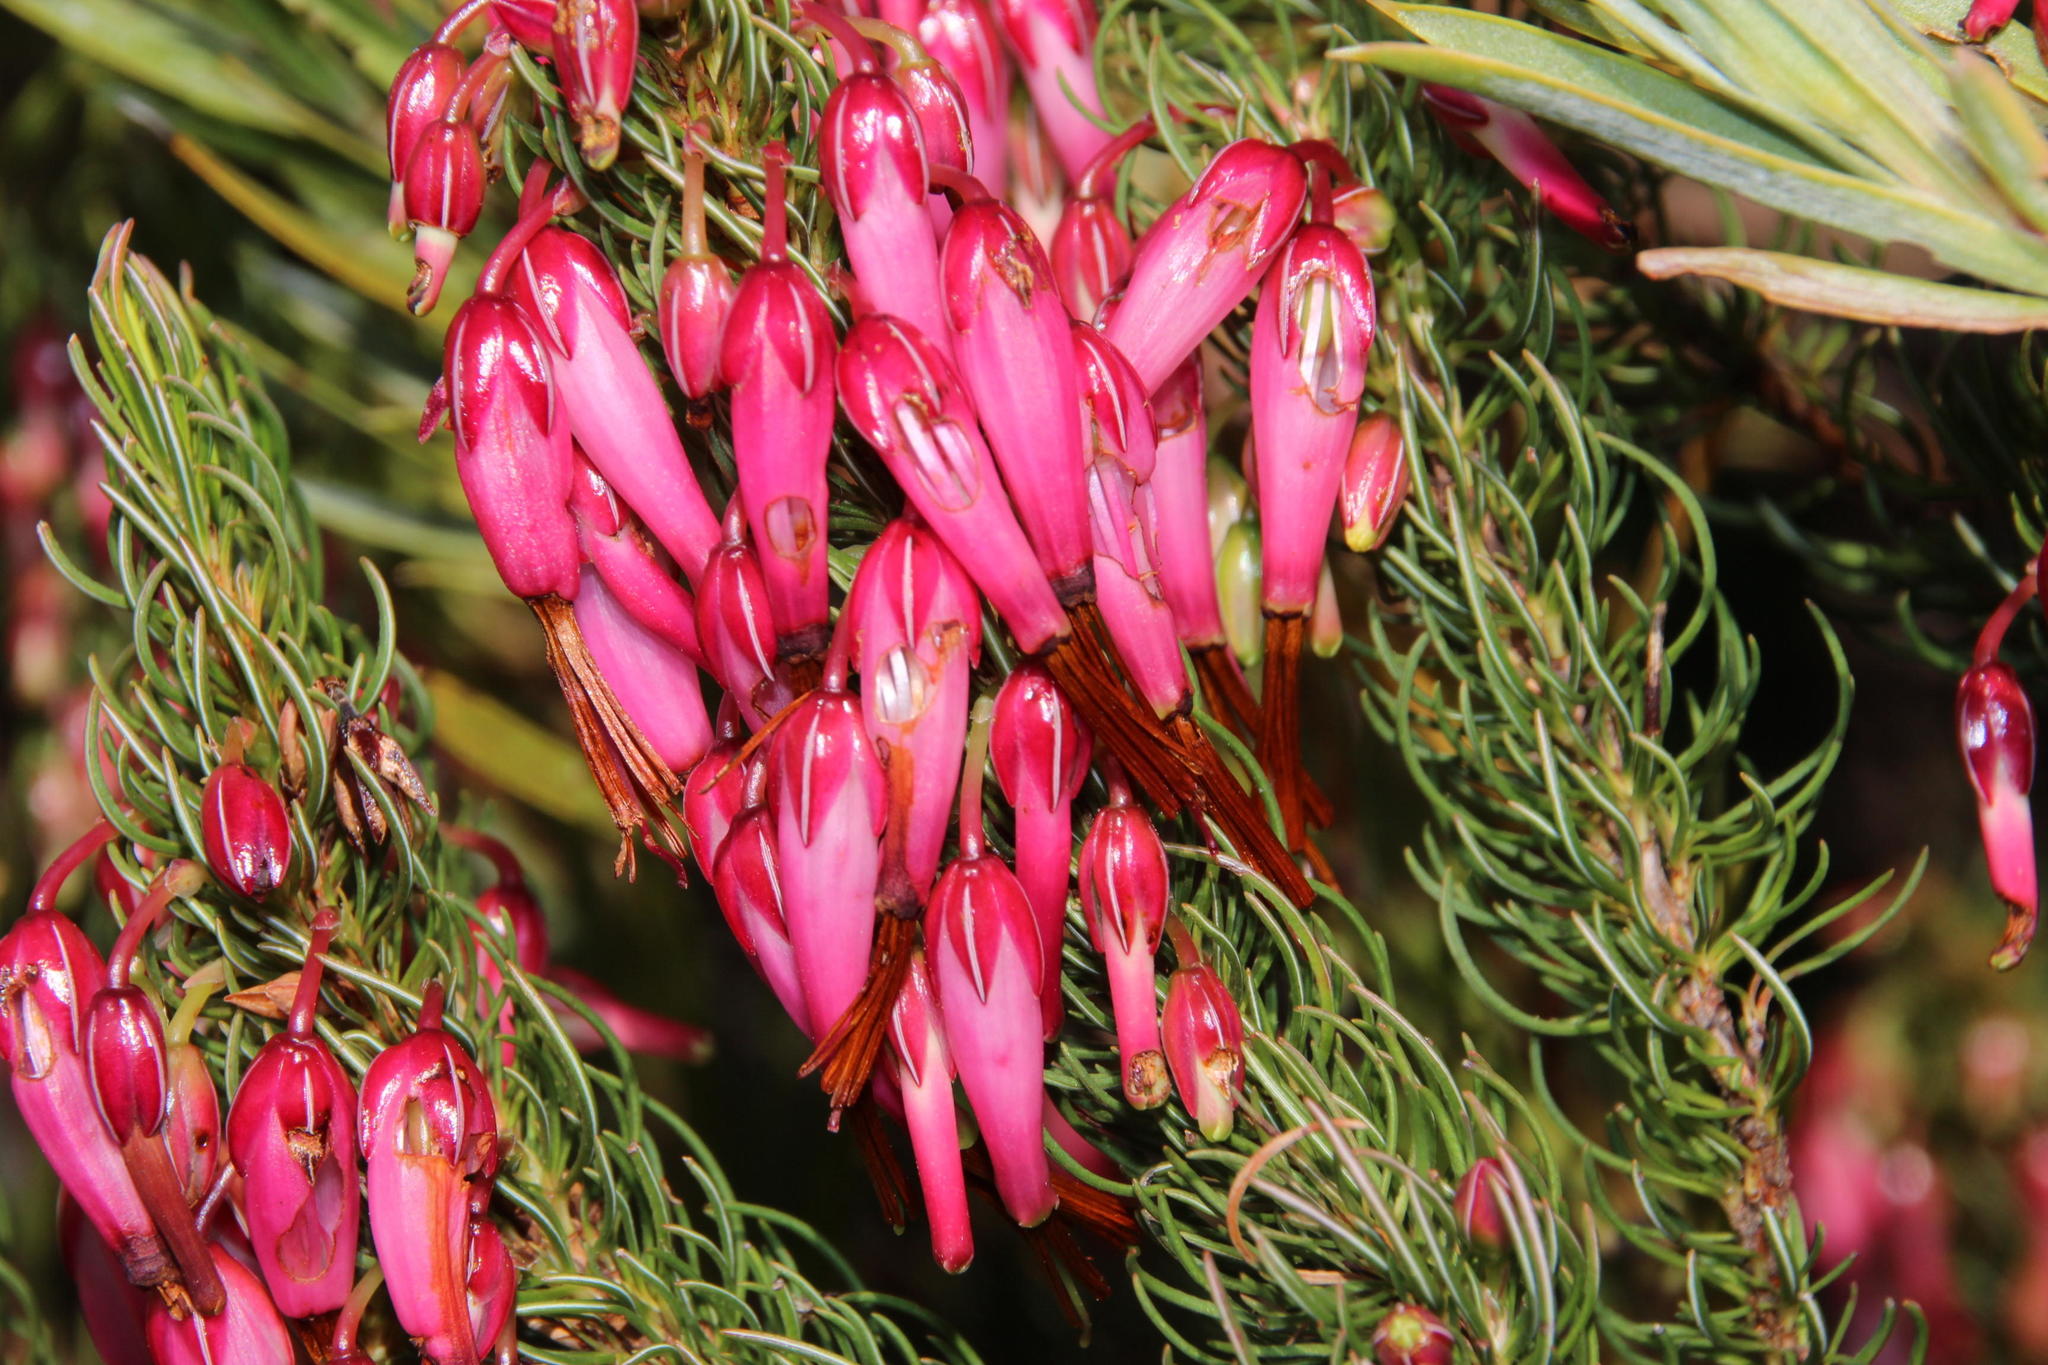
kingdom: Plantae
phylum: Tracheophyta
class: Magnoliopsida
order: Ericales
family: Ericaceae
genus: Erica
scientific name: Erica plukenetii
